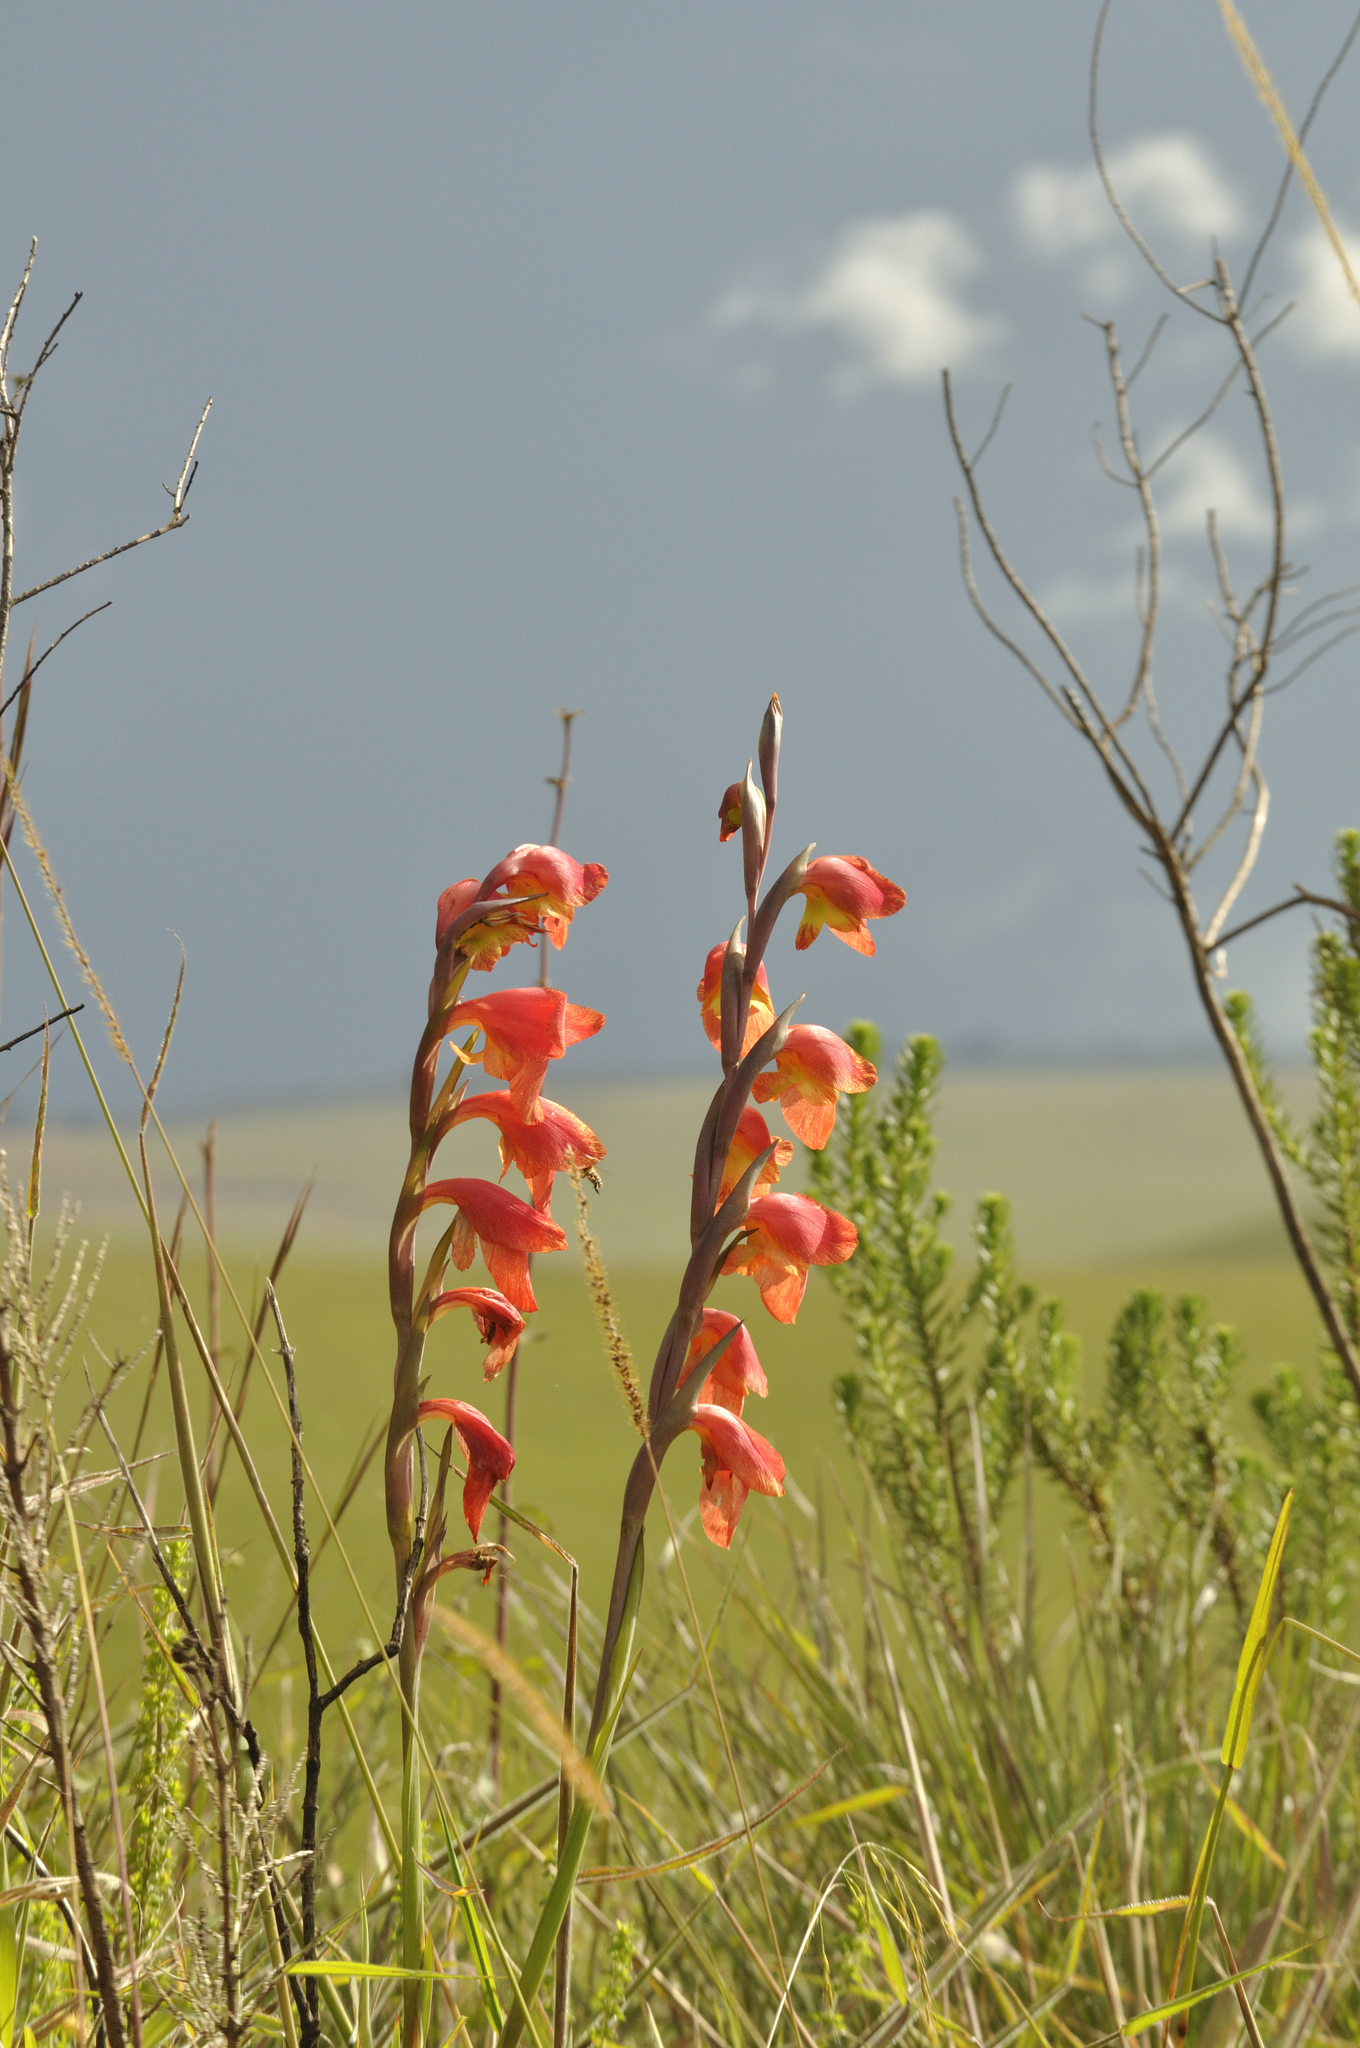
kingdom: Plantae
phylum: Tracheophyta
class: Liliopsida
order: Asparagales
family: Iridaceae
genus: Gladiolus
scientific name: Gladiolus dalenii
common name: Cornflag
